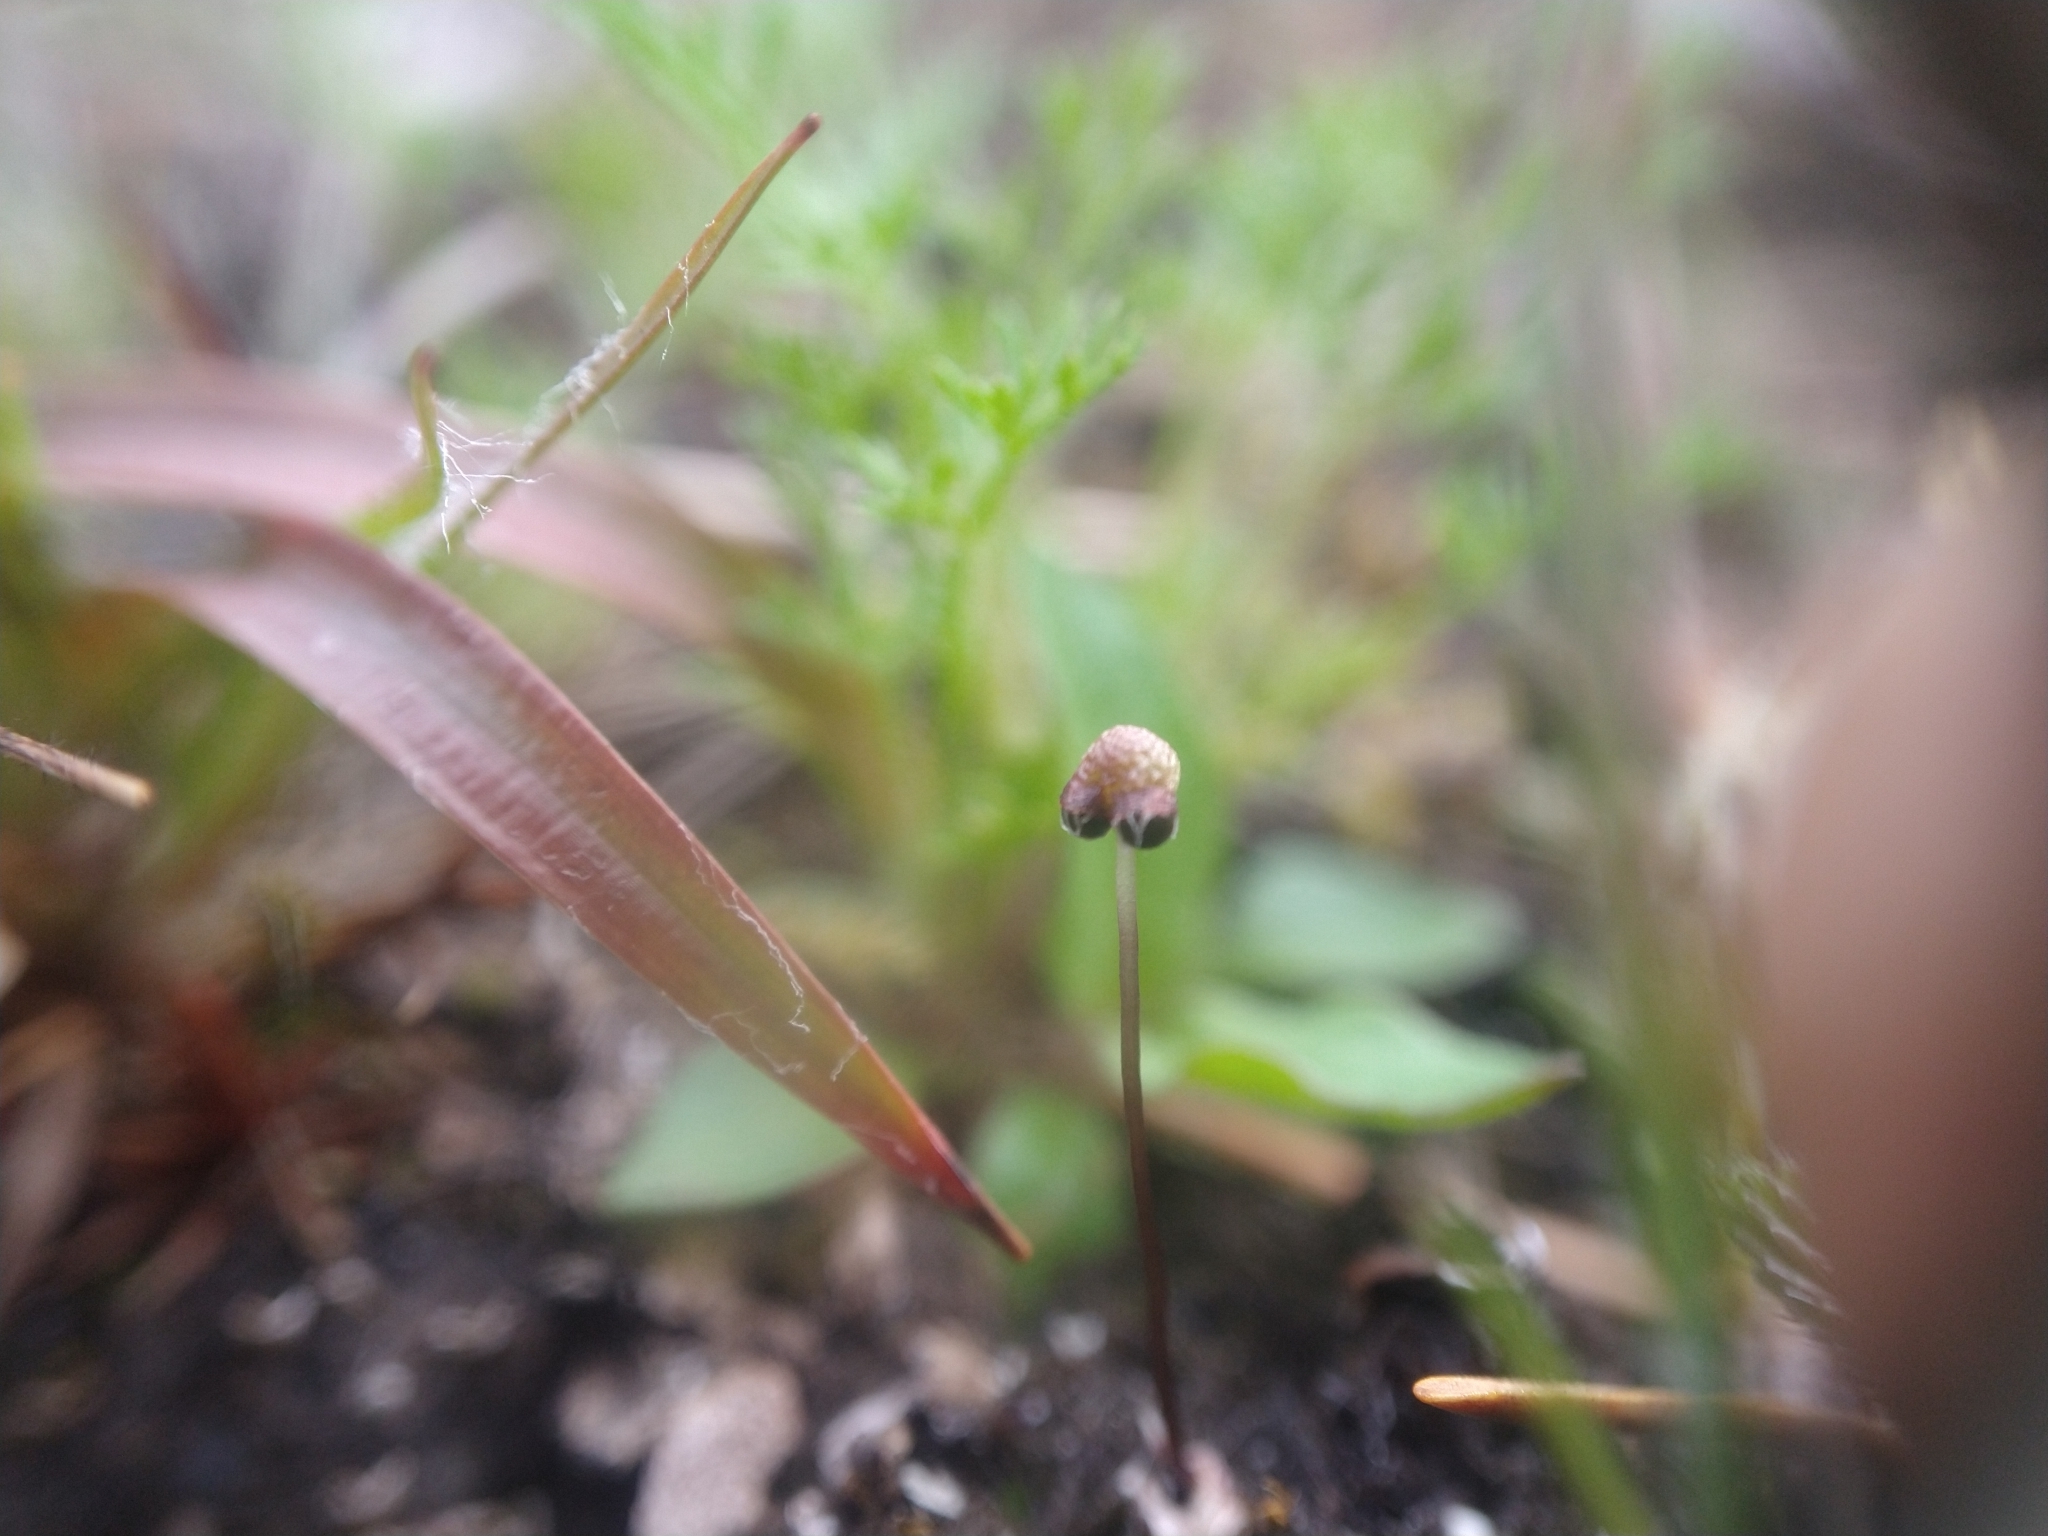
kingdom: Plantae
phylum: Marchantiophyta
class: Marchantiopsida
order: Marchantiales
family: Aytoniaceae
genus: Mannia
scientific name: Mannia gracilis
